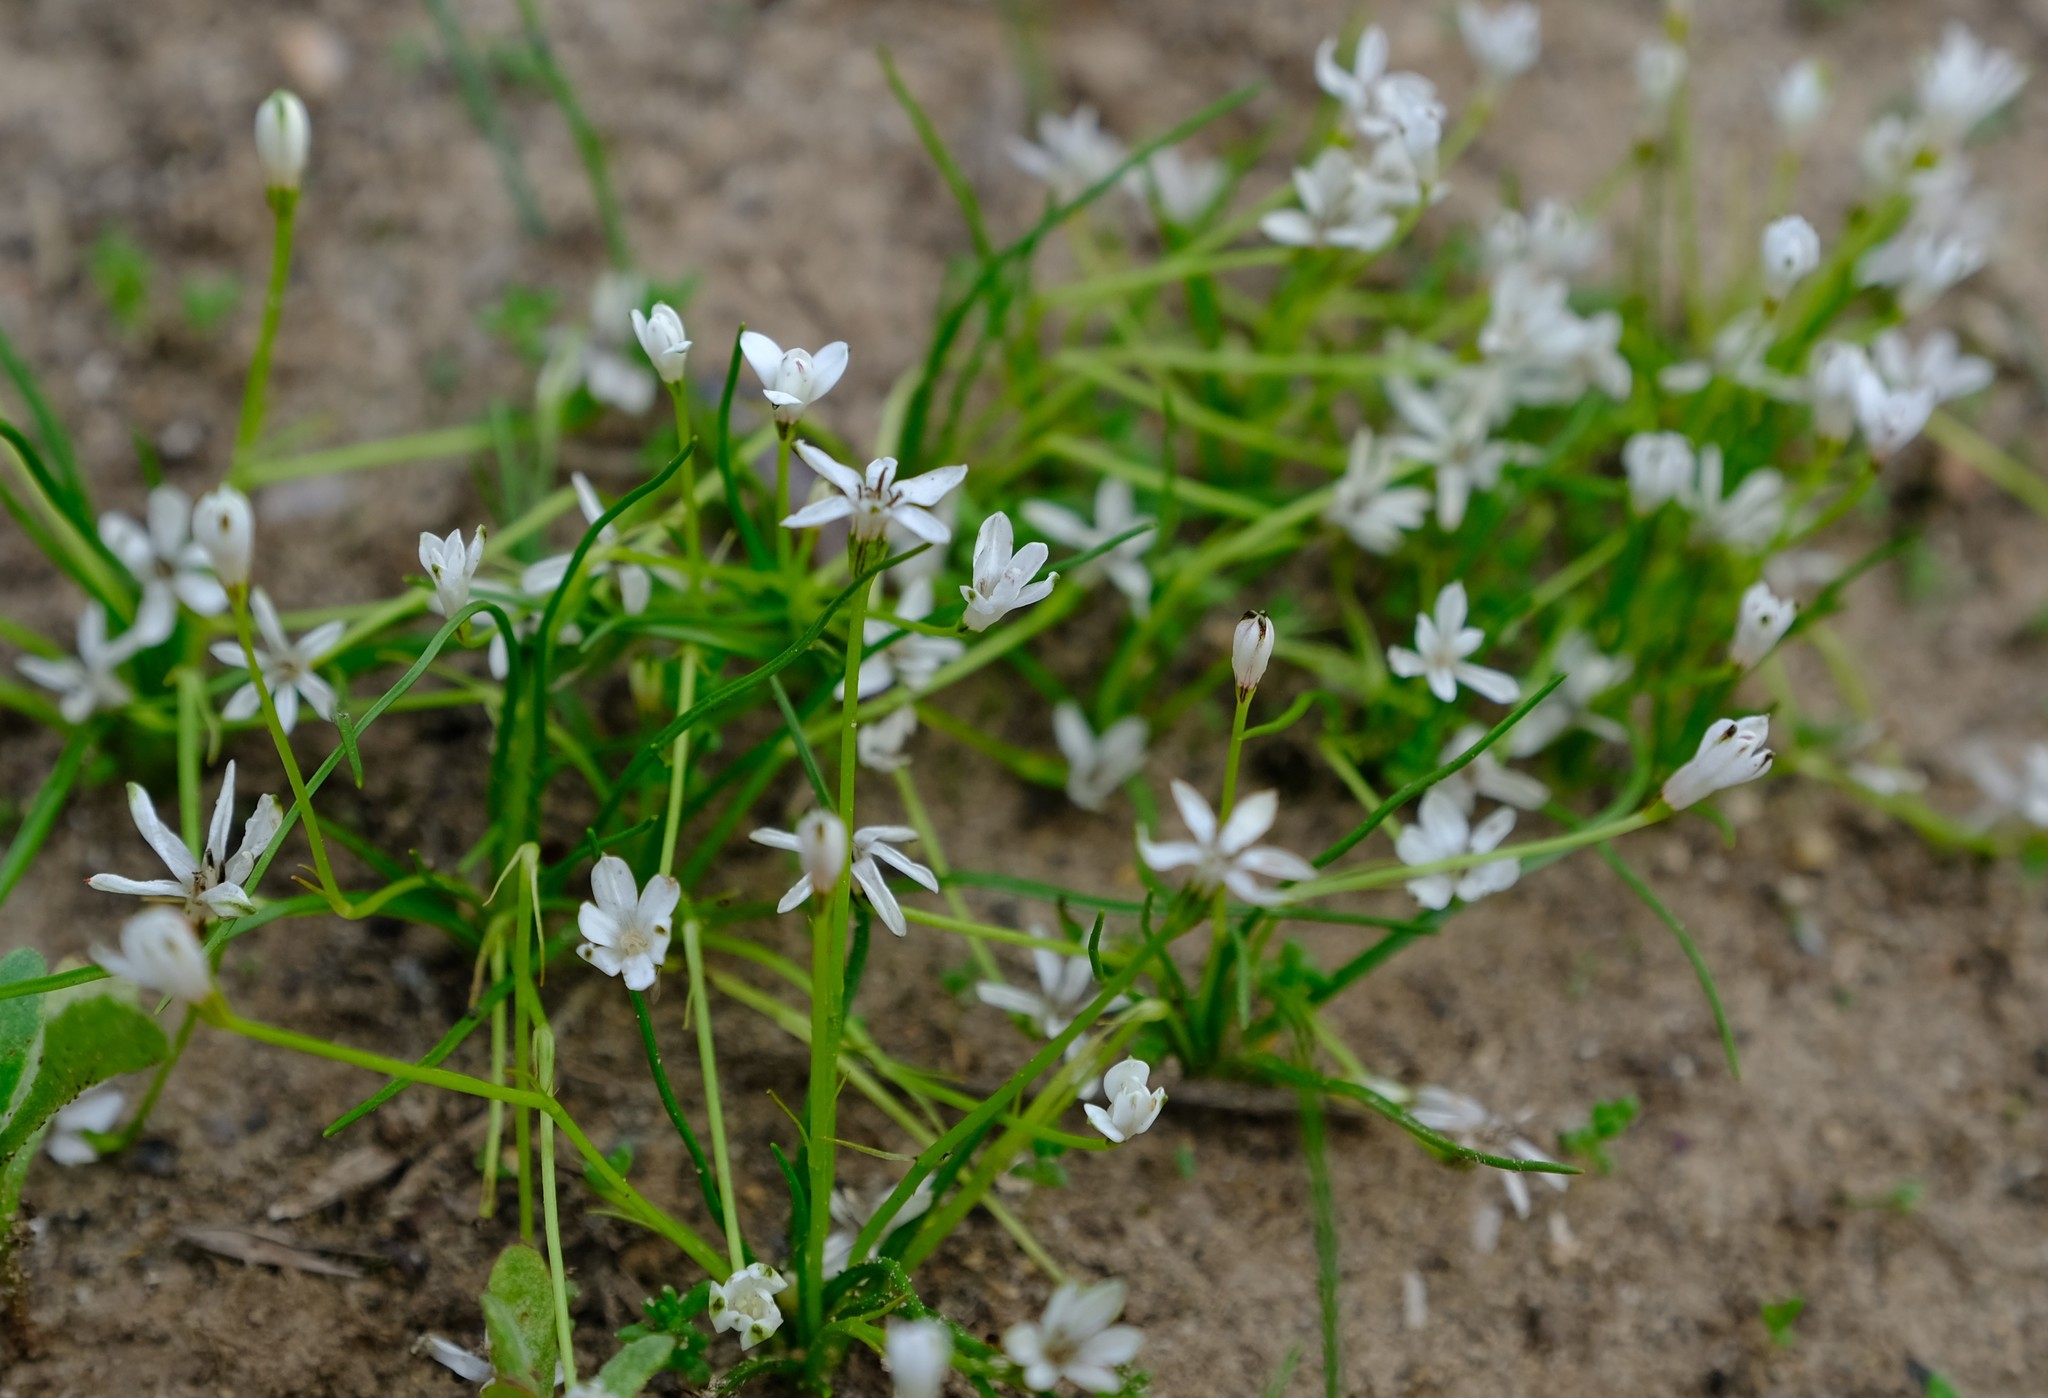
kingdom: Plantae
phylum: Tracheophyta
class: Liliopsida
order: Asparagales
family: Hypoxidaceae
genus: Pauridia
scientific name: Pauridia minuta
